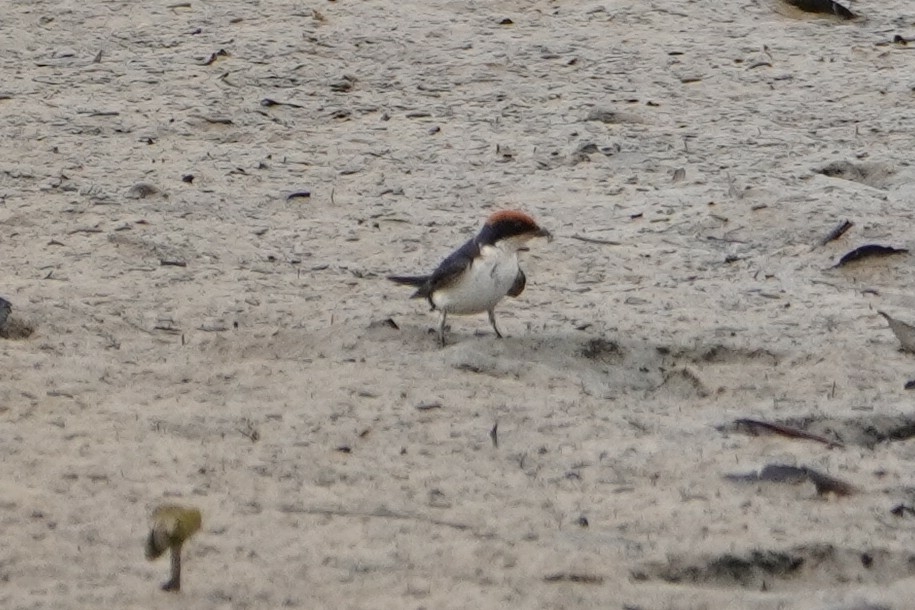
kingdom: Animalia
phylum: Chordata
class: Aves
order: Passeriformes
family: Hirundinidae
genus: Hirundo
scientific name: Hirundo smithii
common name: Wire-tailed swallow
